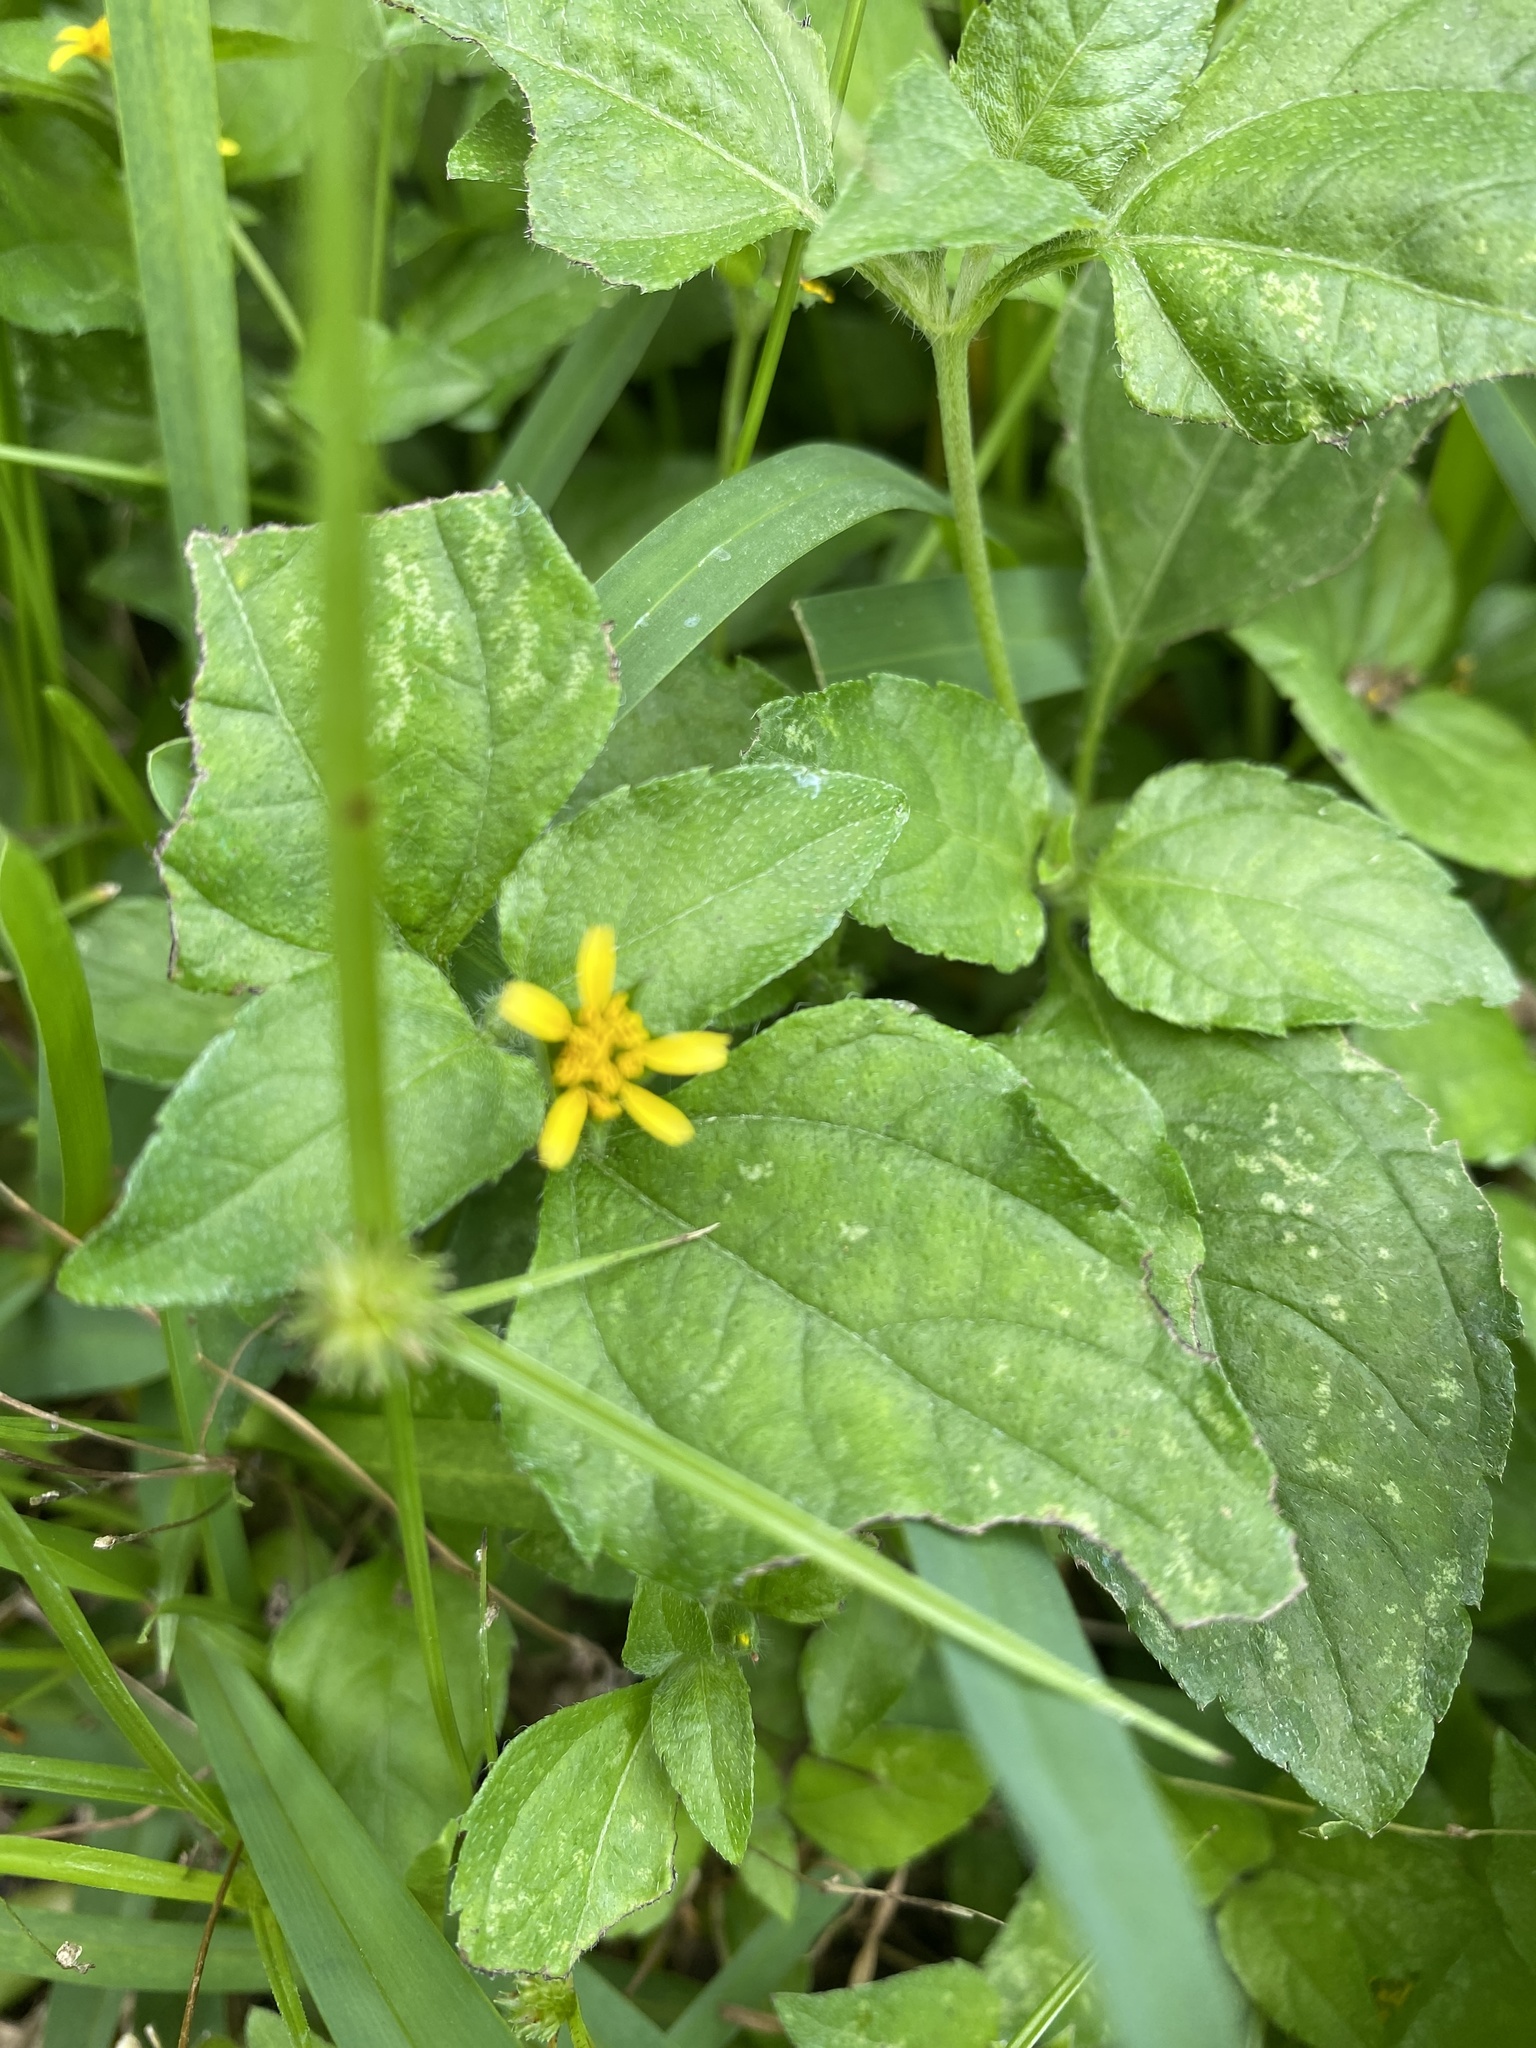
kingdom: Plantae
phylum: Tracheophyta
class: Magnoliopsida
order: Asterales
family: Asteraceae
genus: Calyptocarpus
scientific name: Calyptocarpus vialis
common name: Straggler daisy
